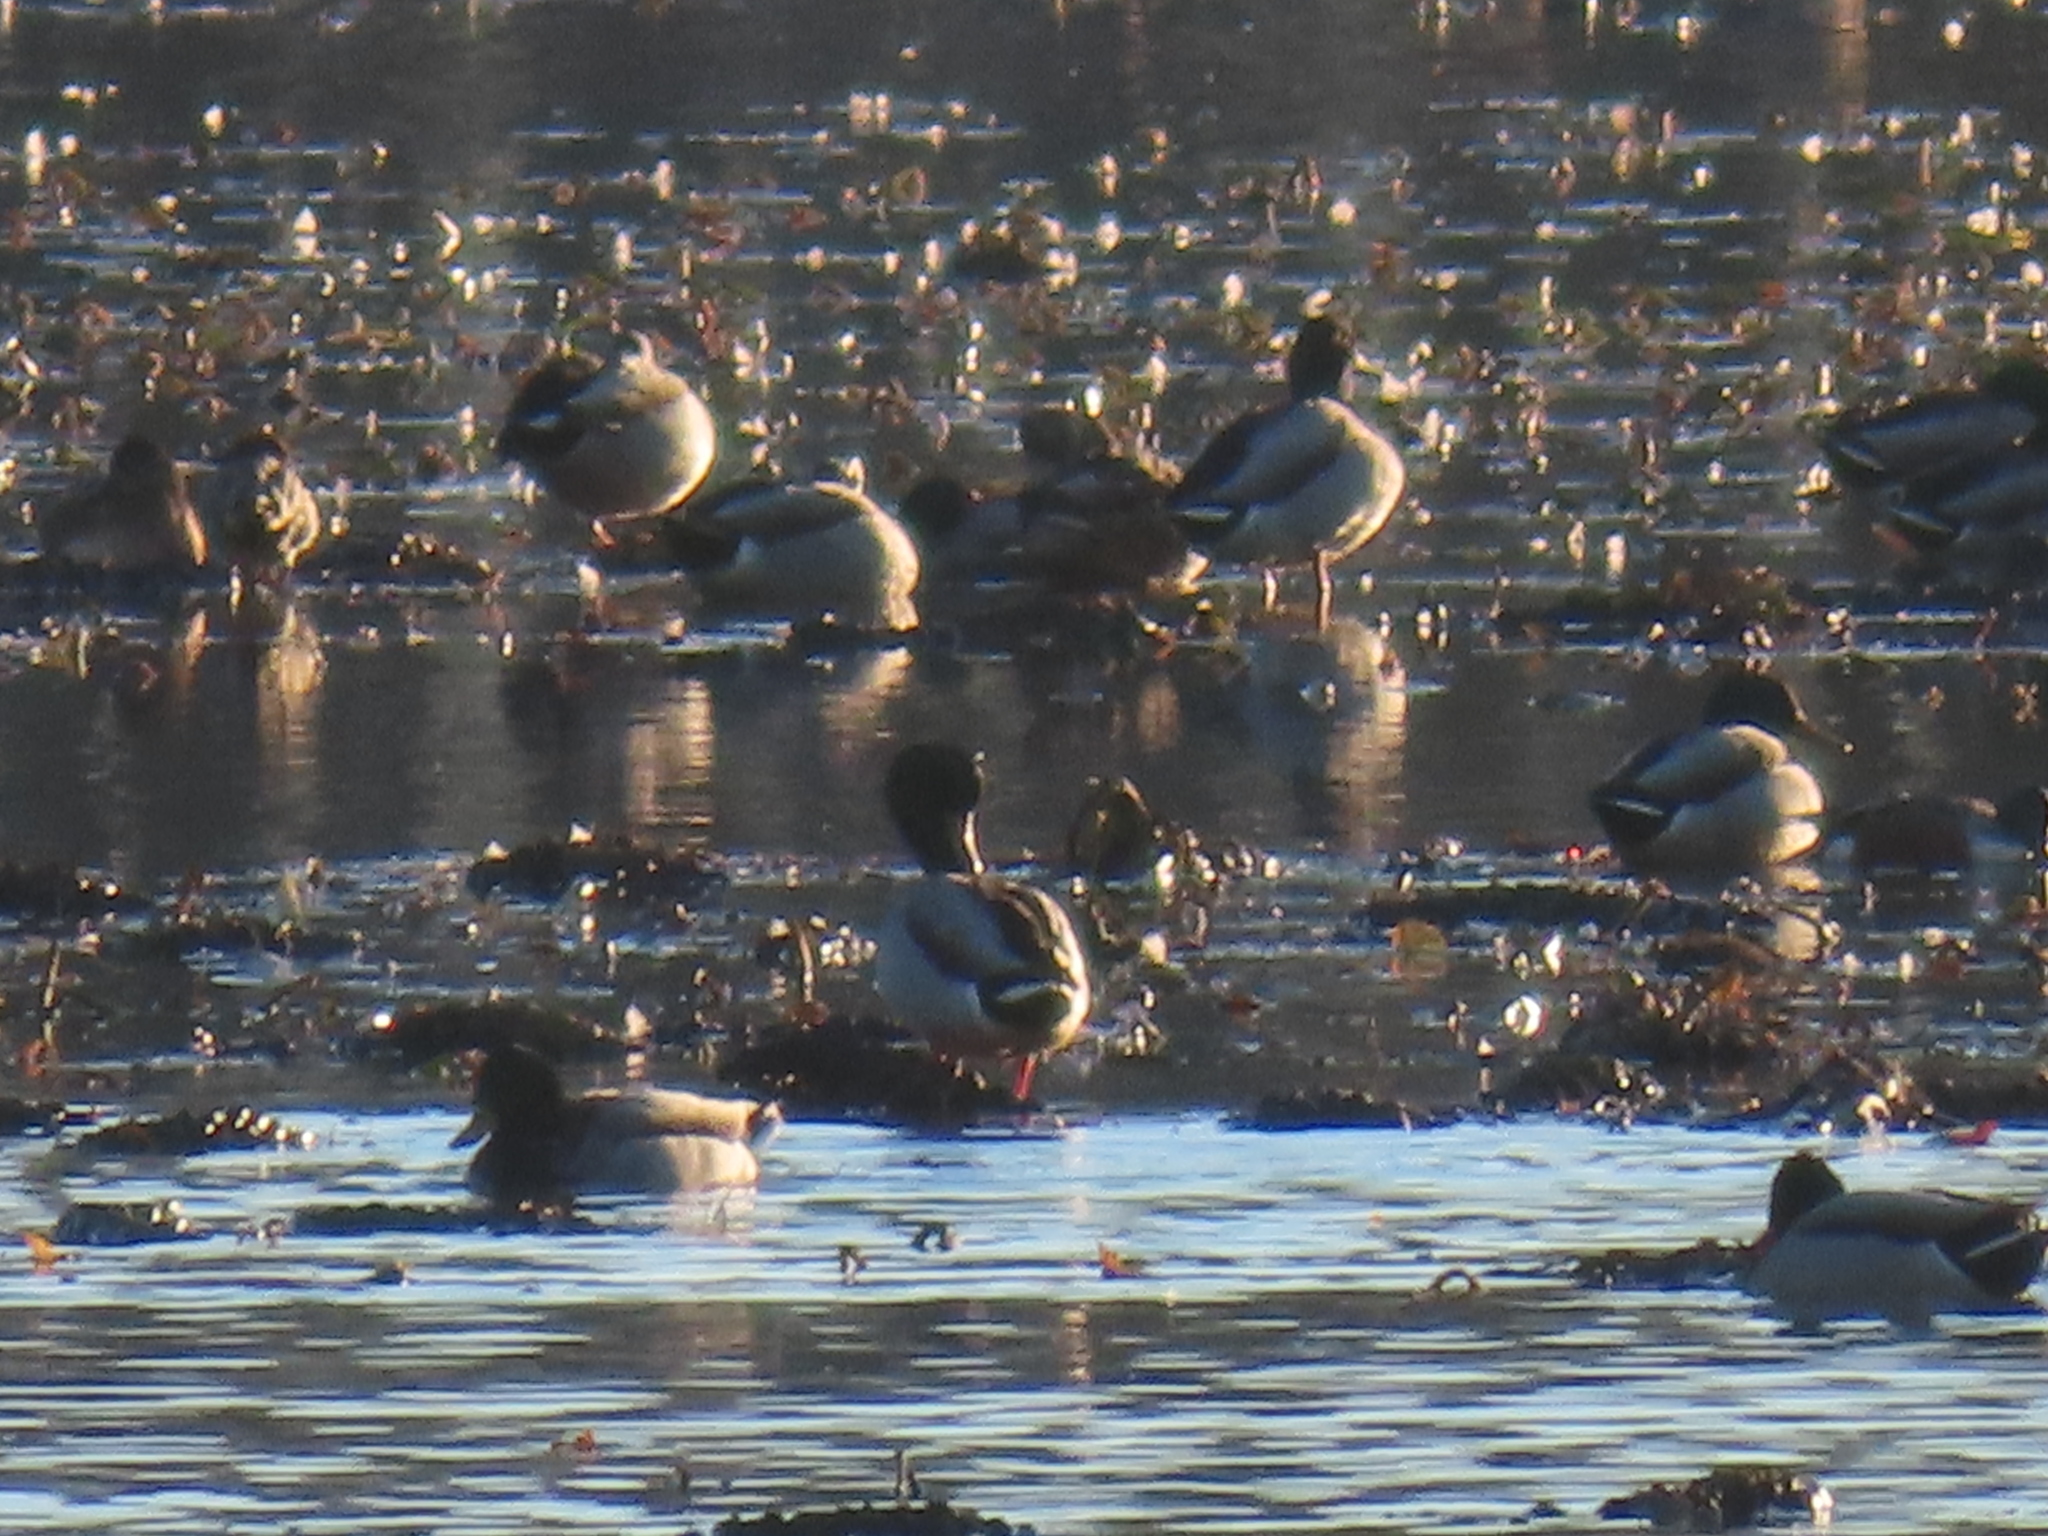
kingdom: Animalia
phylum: Chordata
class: Aves
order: Anseriformes
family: Anatidae
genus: Anas
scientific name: Anas platyrhynchos
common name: Mallard
